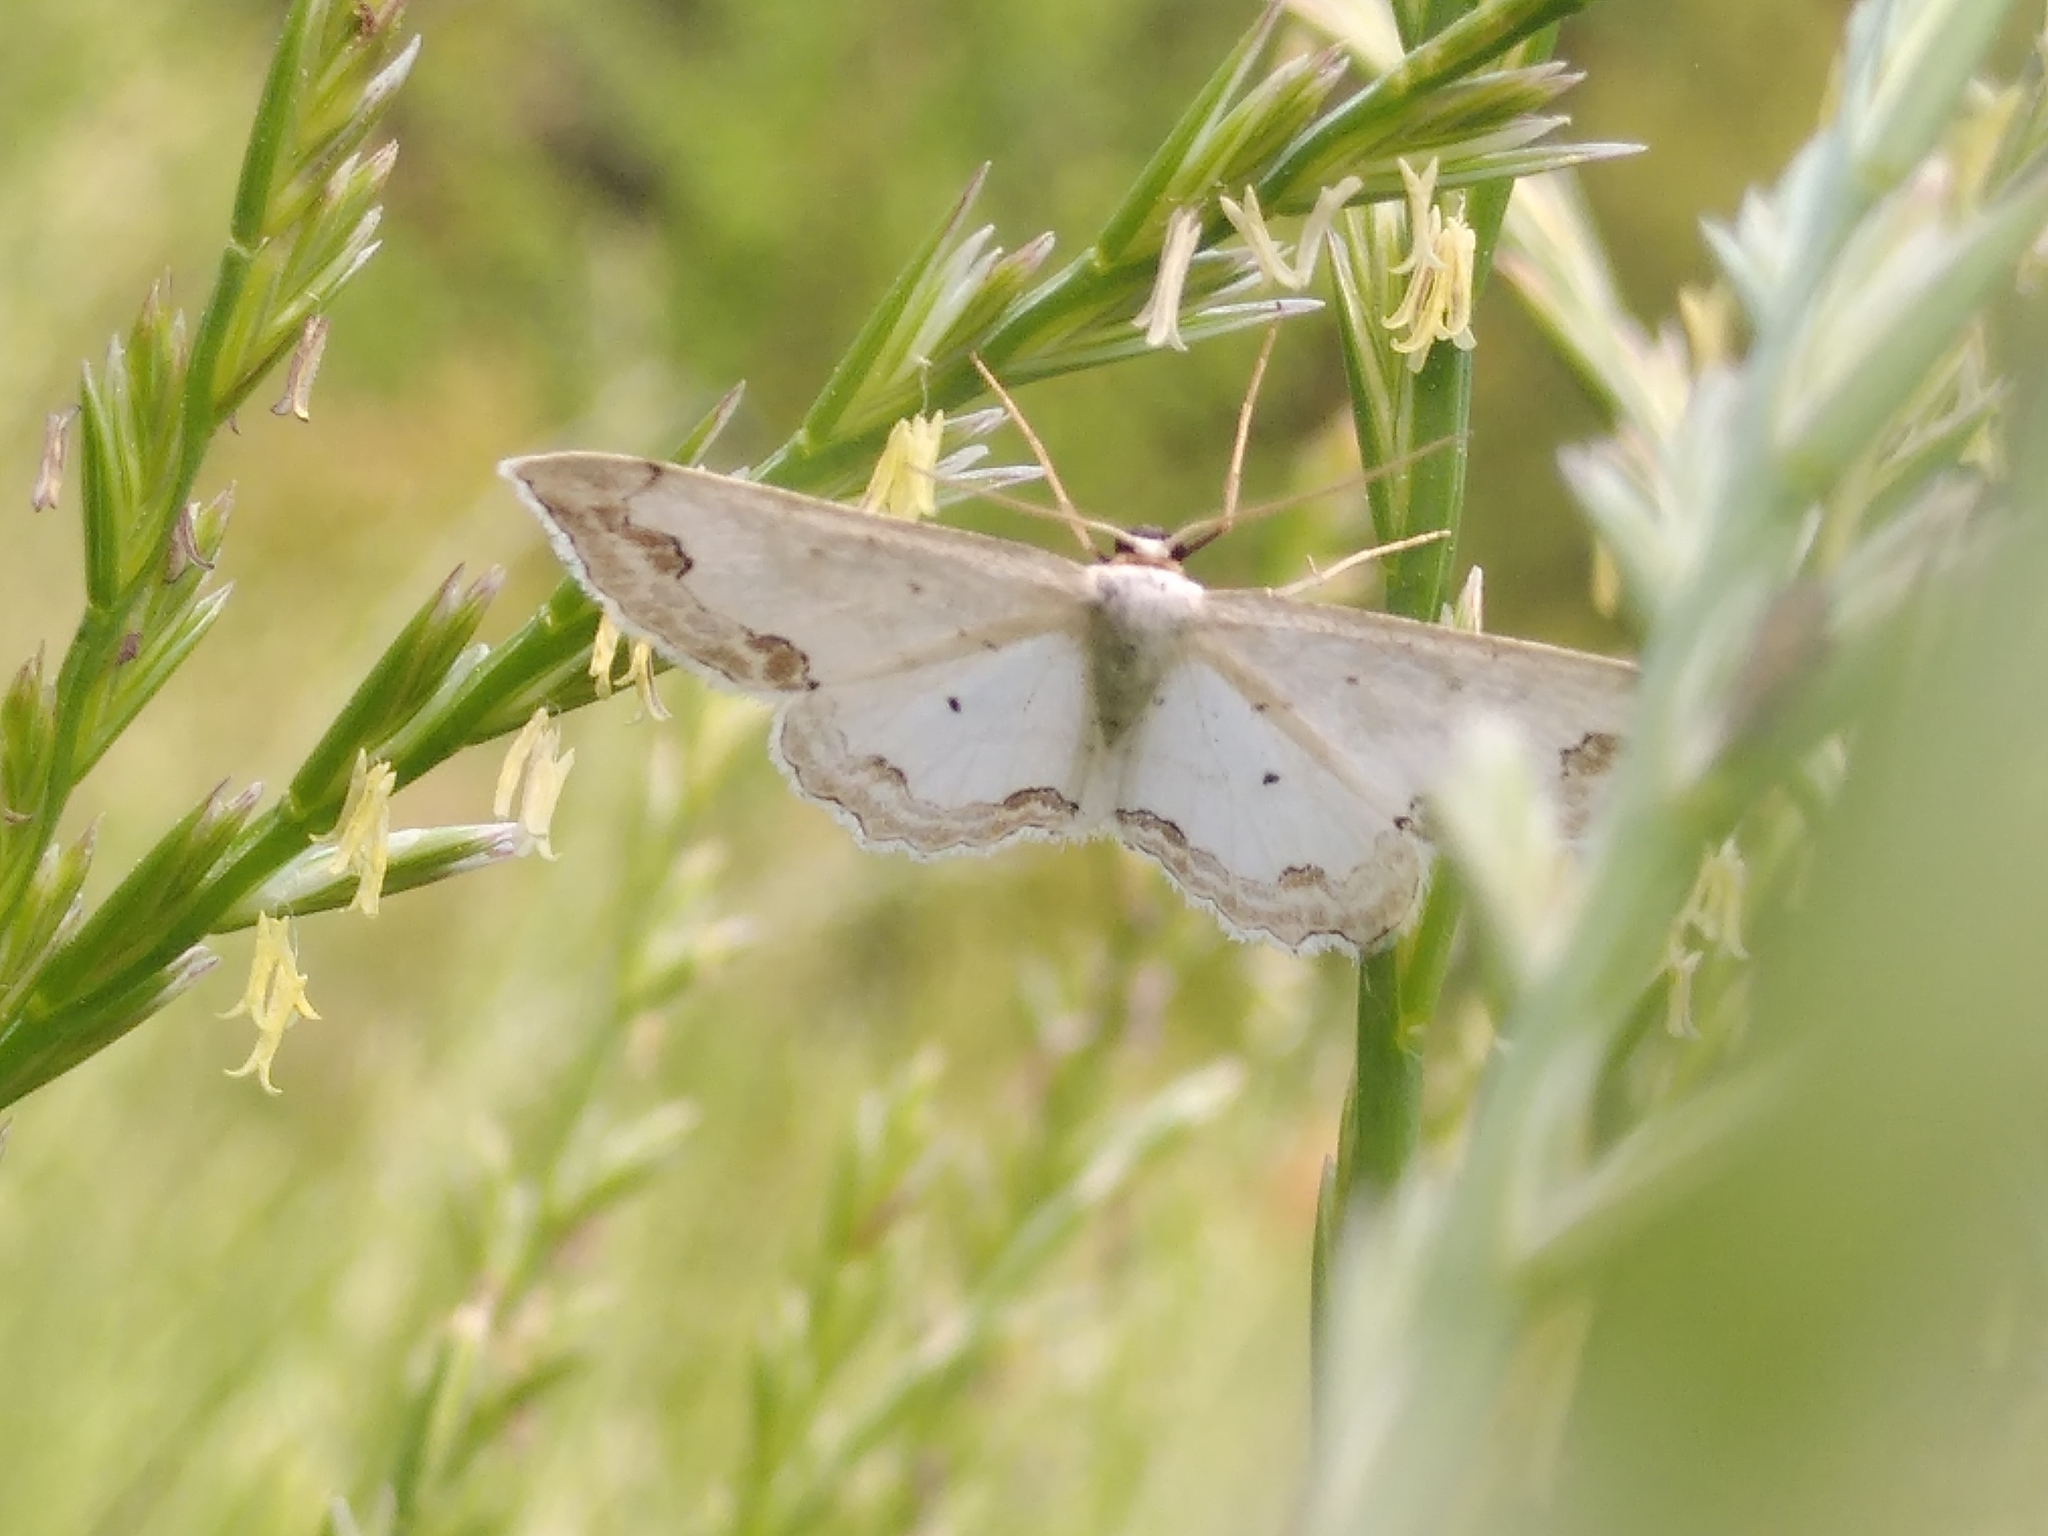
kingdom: Animalia
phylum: Arthropoda
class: Insecta
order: Lepidoptera
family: Geometridae
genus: Scopula
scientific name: Scopula ornata
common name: Lace border
